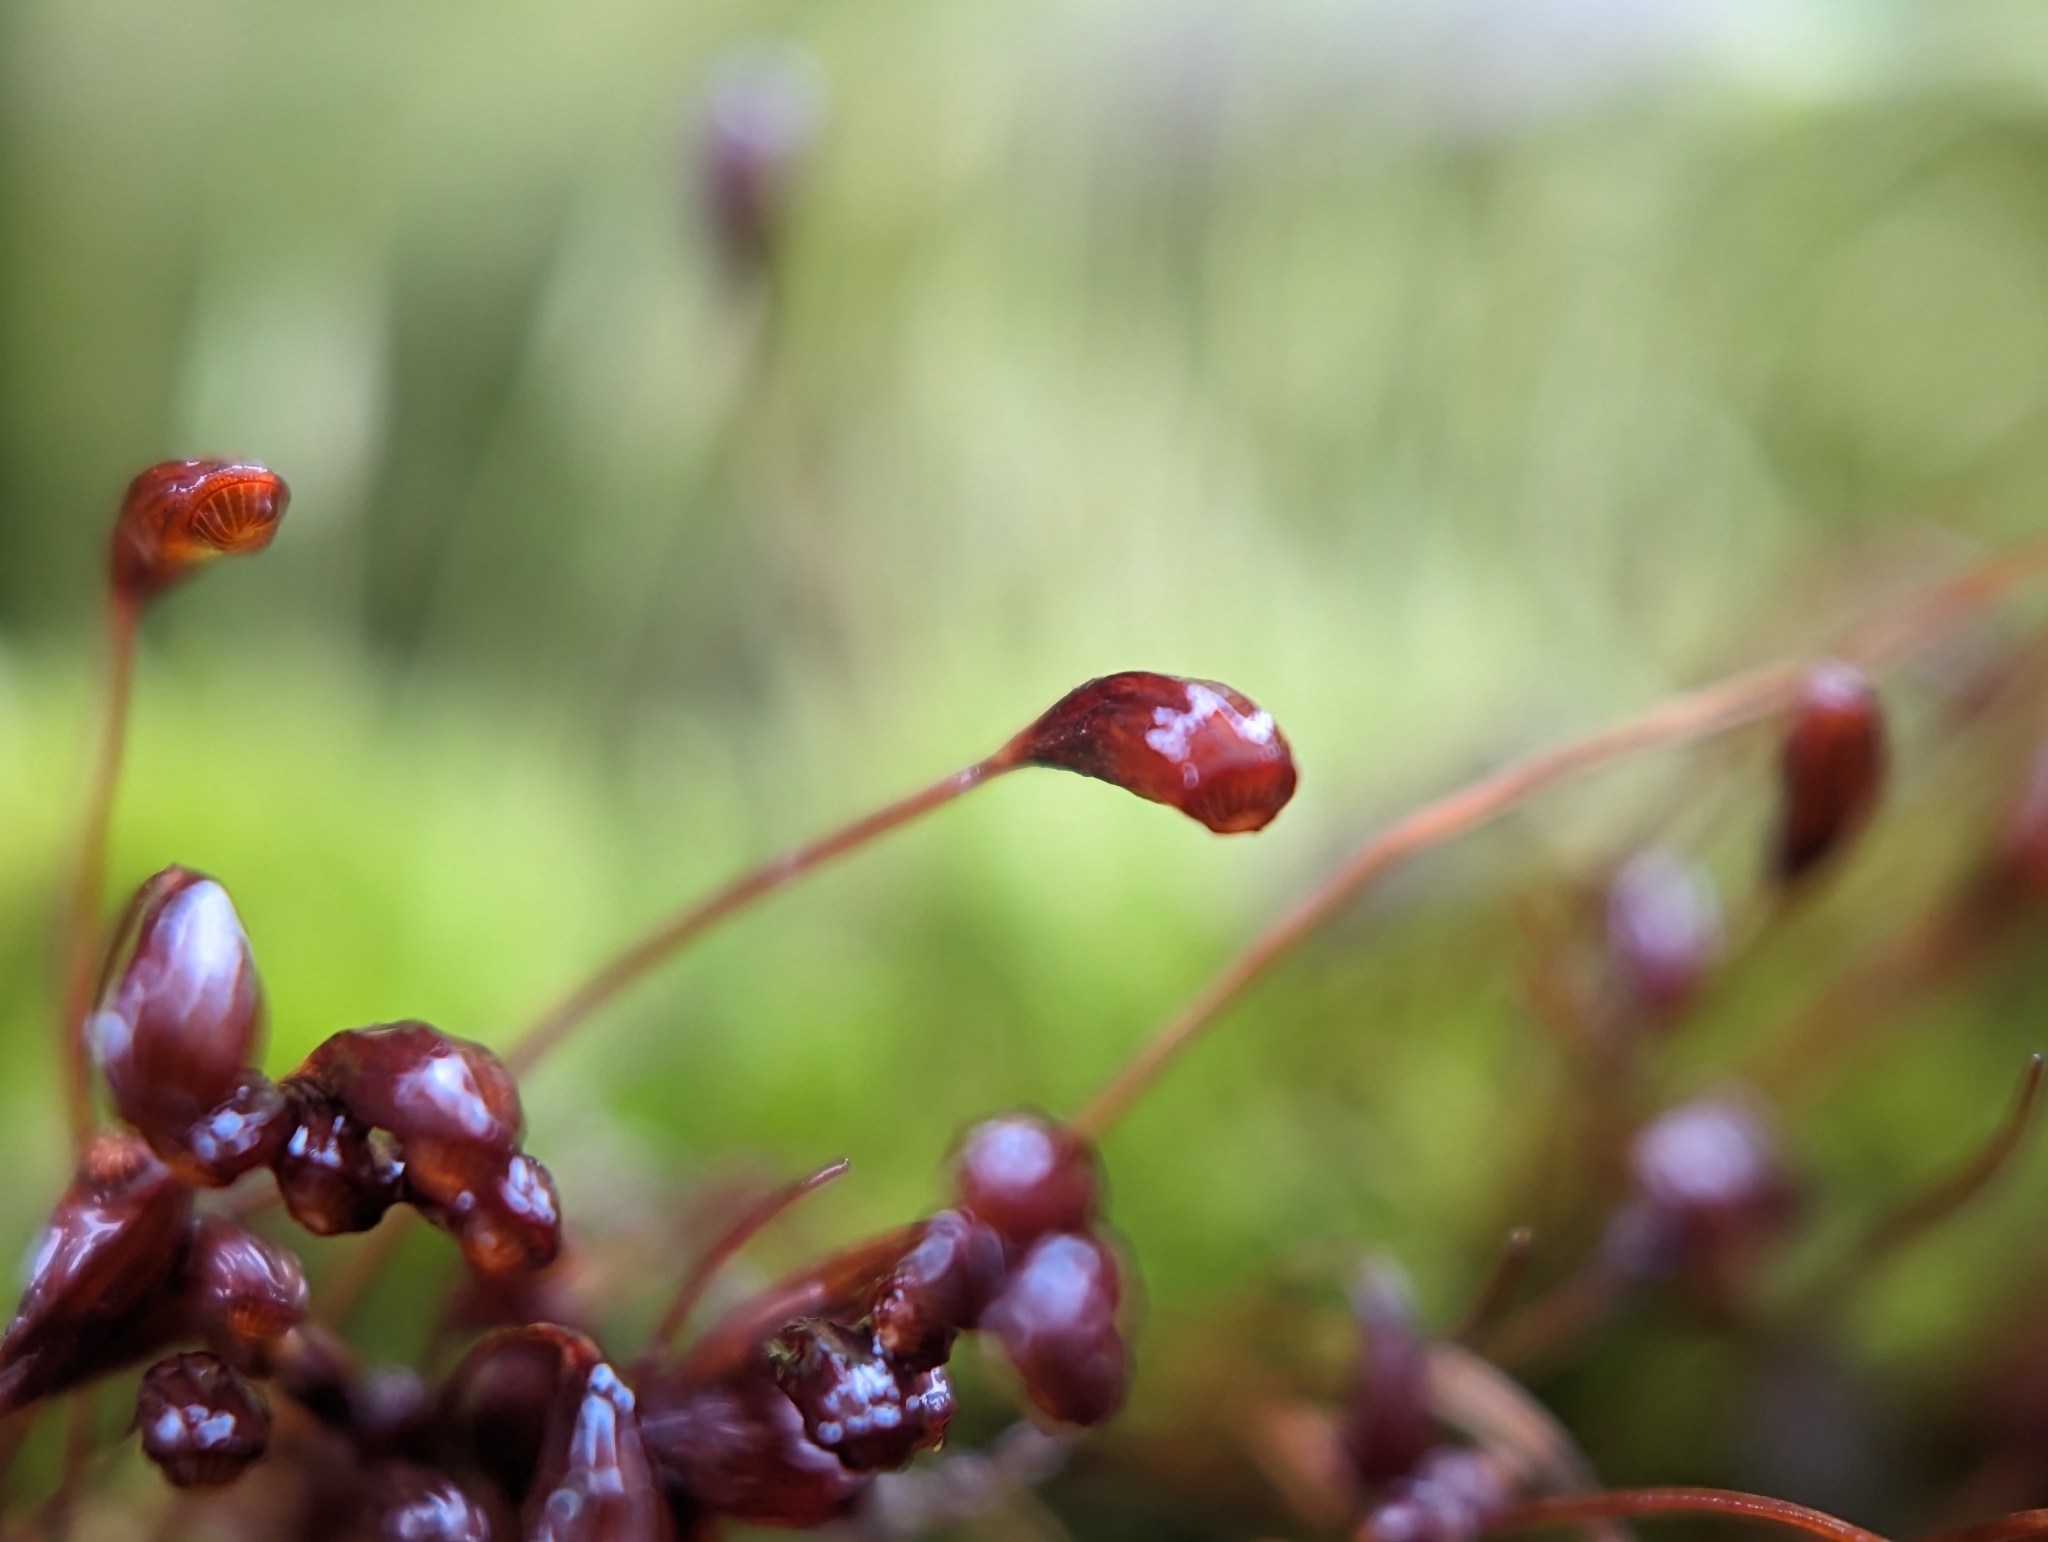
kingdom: Plantae
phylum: Bryophyta
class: Bryopsida
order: Funariales
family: Funariaceae
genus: Funaria
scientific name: Funaria hygrometrica
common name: Common cord moss
